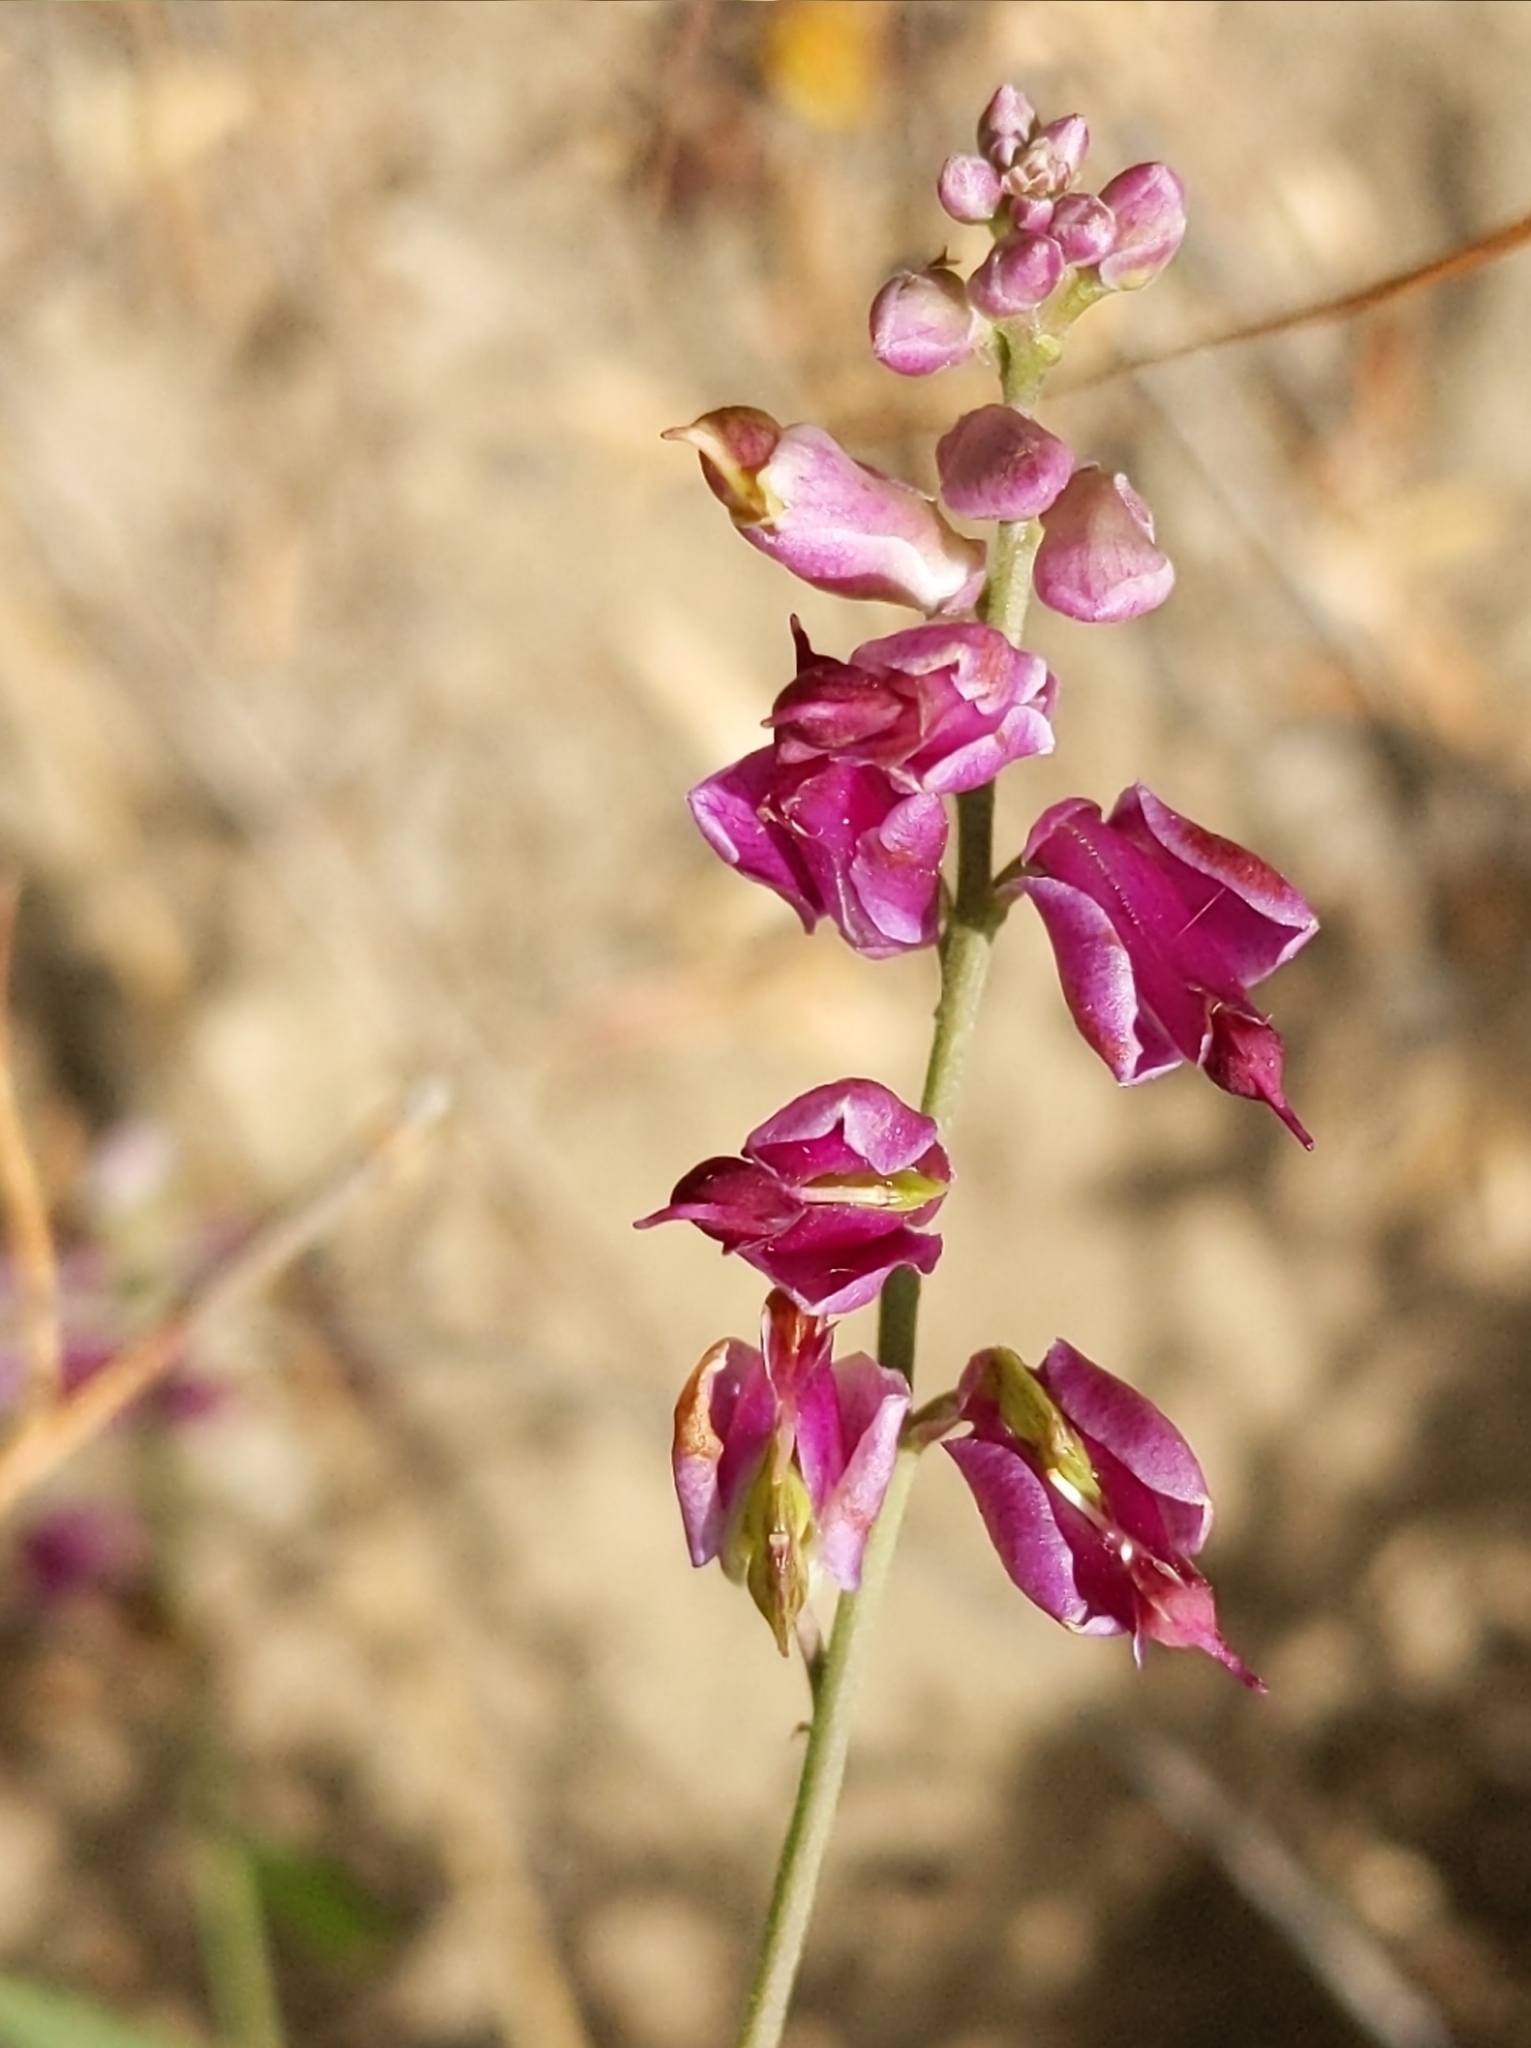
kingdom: Plantae
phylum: Tracheophyta
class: Magnoliopsida
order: Fabales
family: Polygalaceae
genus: Rhinotropis
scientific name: Rhinotropis cornuta
